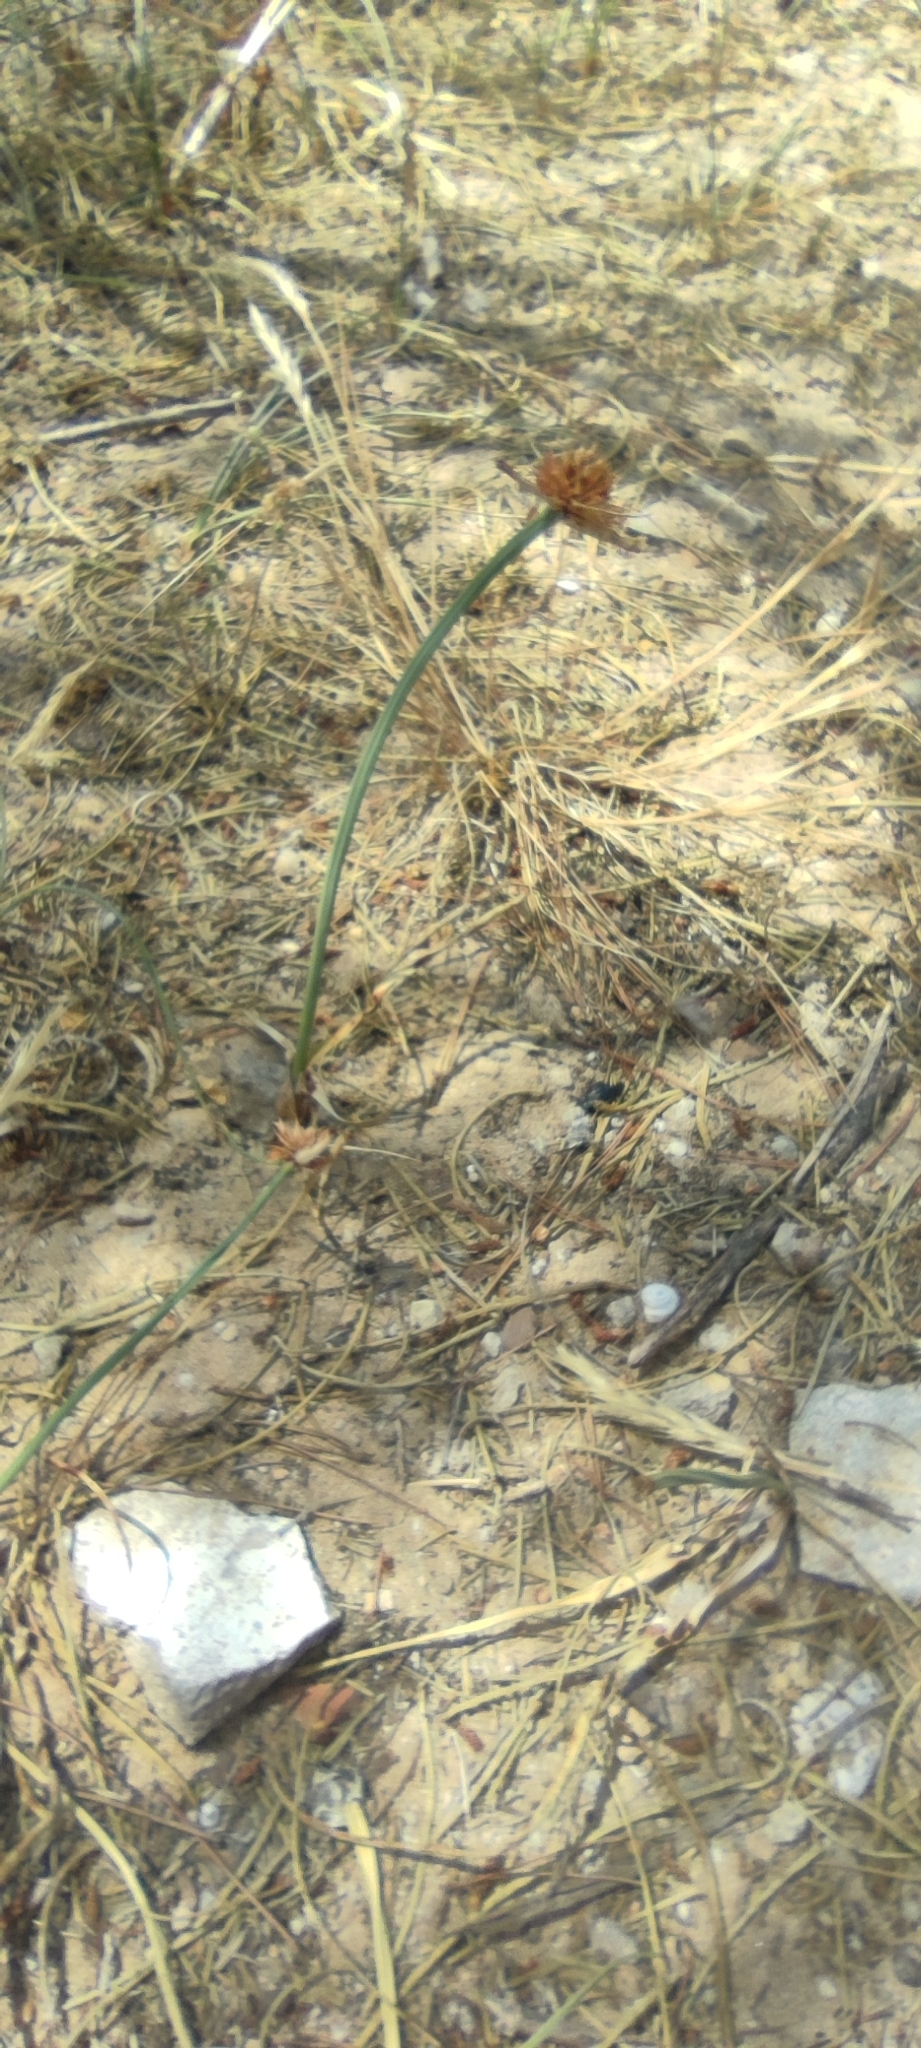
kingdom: Plantae
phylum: Tracheophyta
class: Liliopsida
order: Poales
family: Cyperaceae
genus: Cyperus
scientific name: Cyperus capitatus
